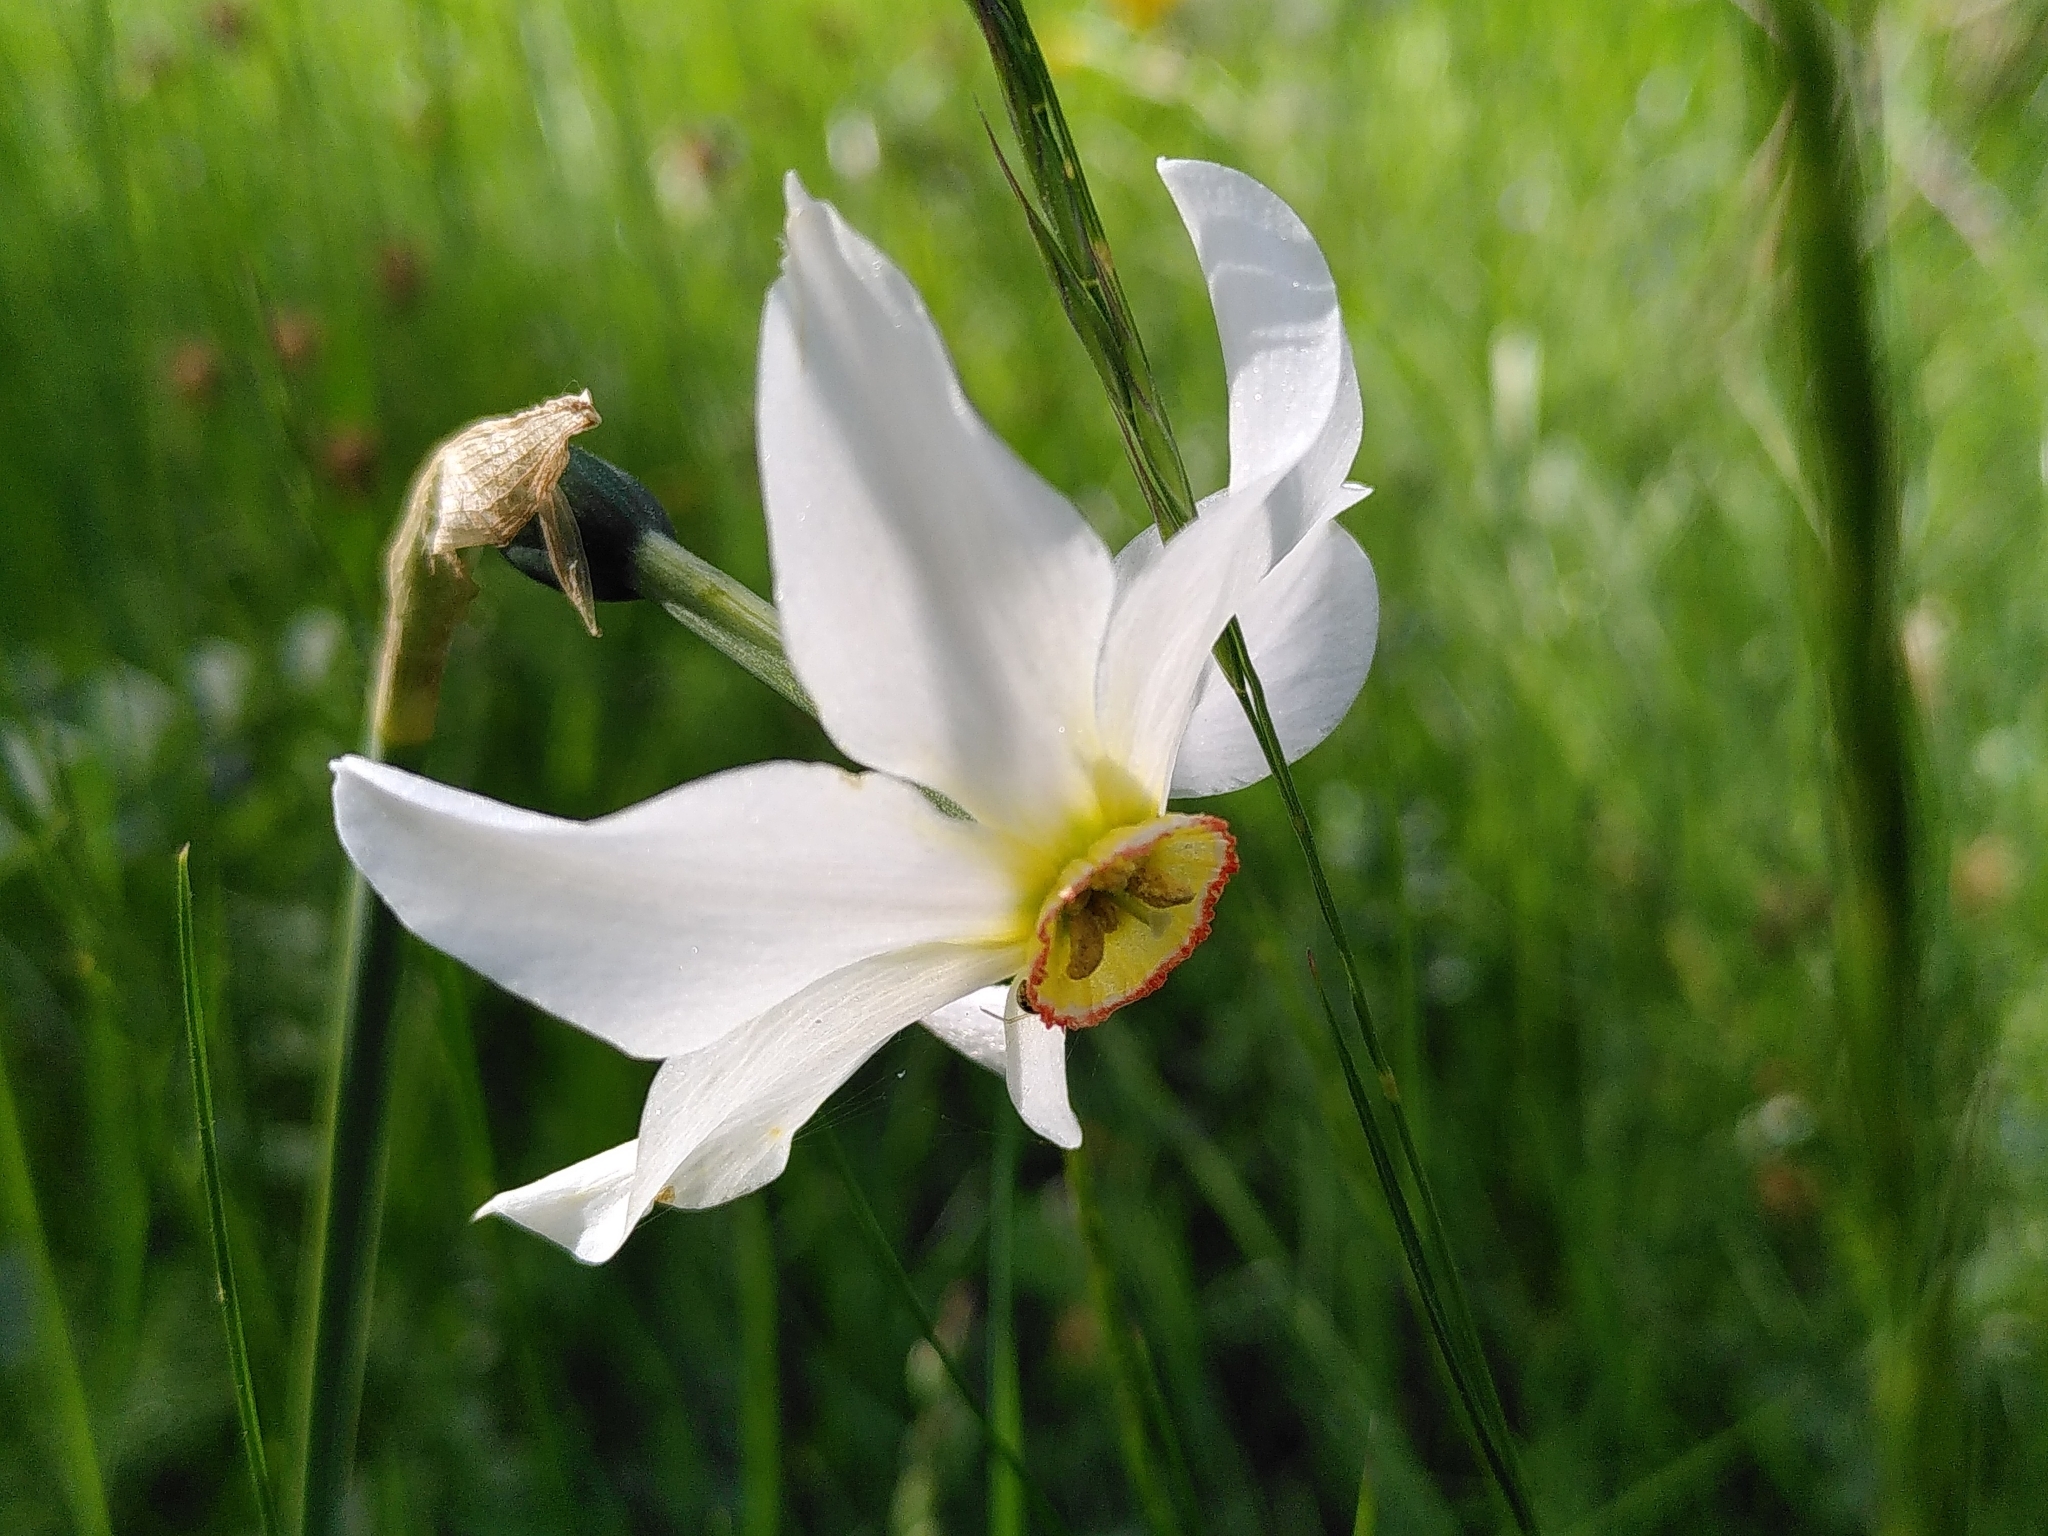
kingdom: Plantae
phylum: Tracheophyta
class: Liliopsida
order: Asparagales
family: Amaryllidaceae
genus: Narcissus
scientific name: Narcissus poeticus
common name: Pheasant's-eye daffodil
